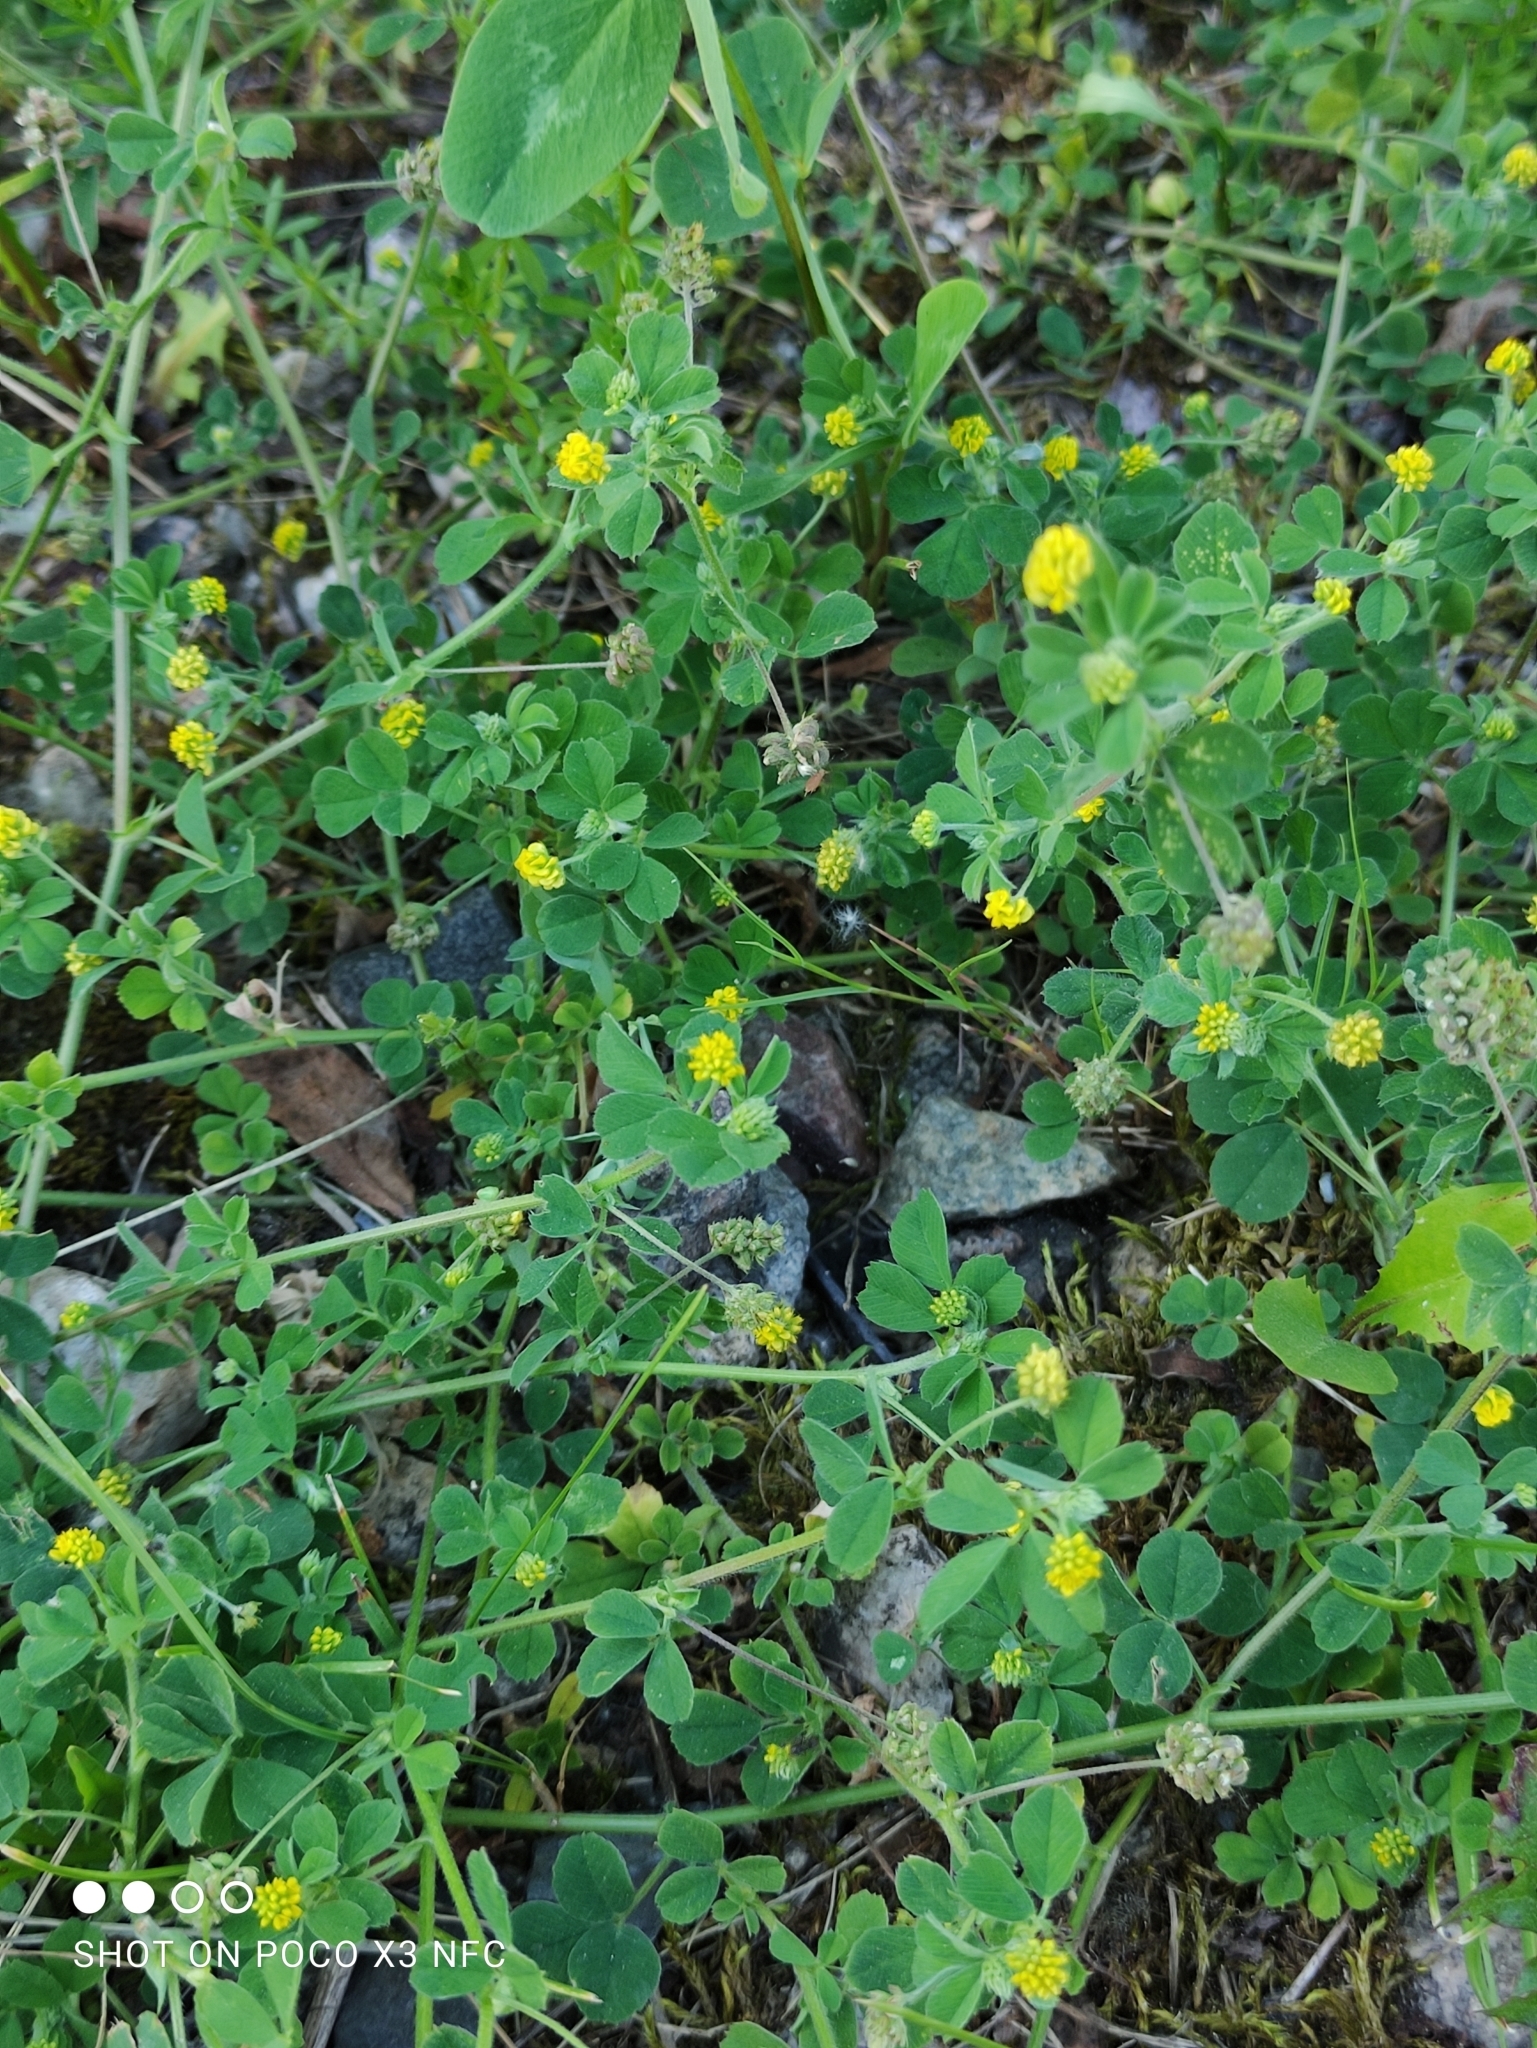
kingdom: Plantae
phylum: Tracheophyta
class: Magnoliopsida
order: Fabales
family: Fabaceae
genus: Medicago
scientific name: Medicago lupulina
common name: Black medick
